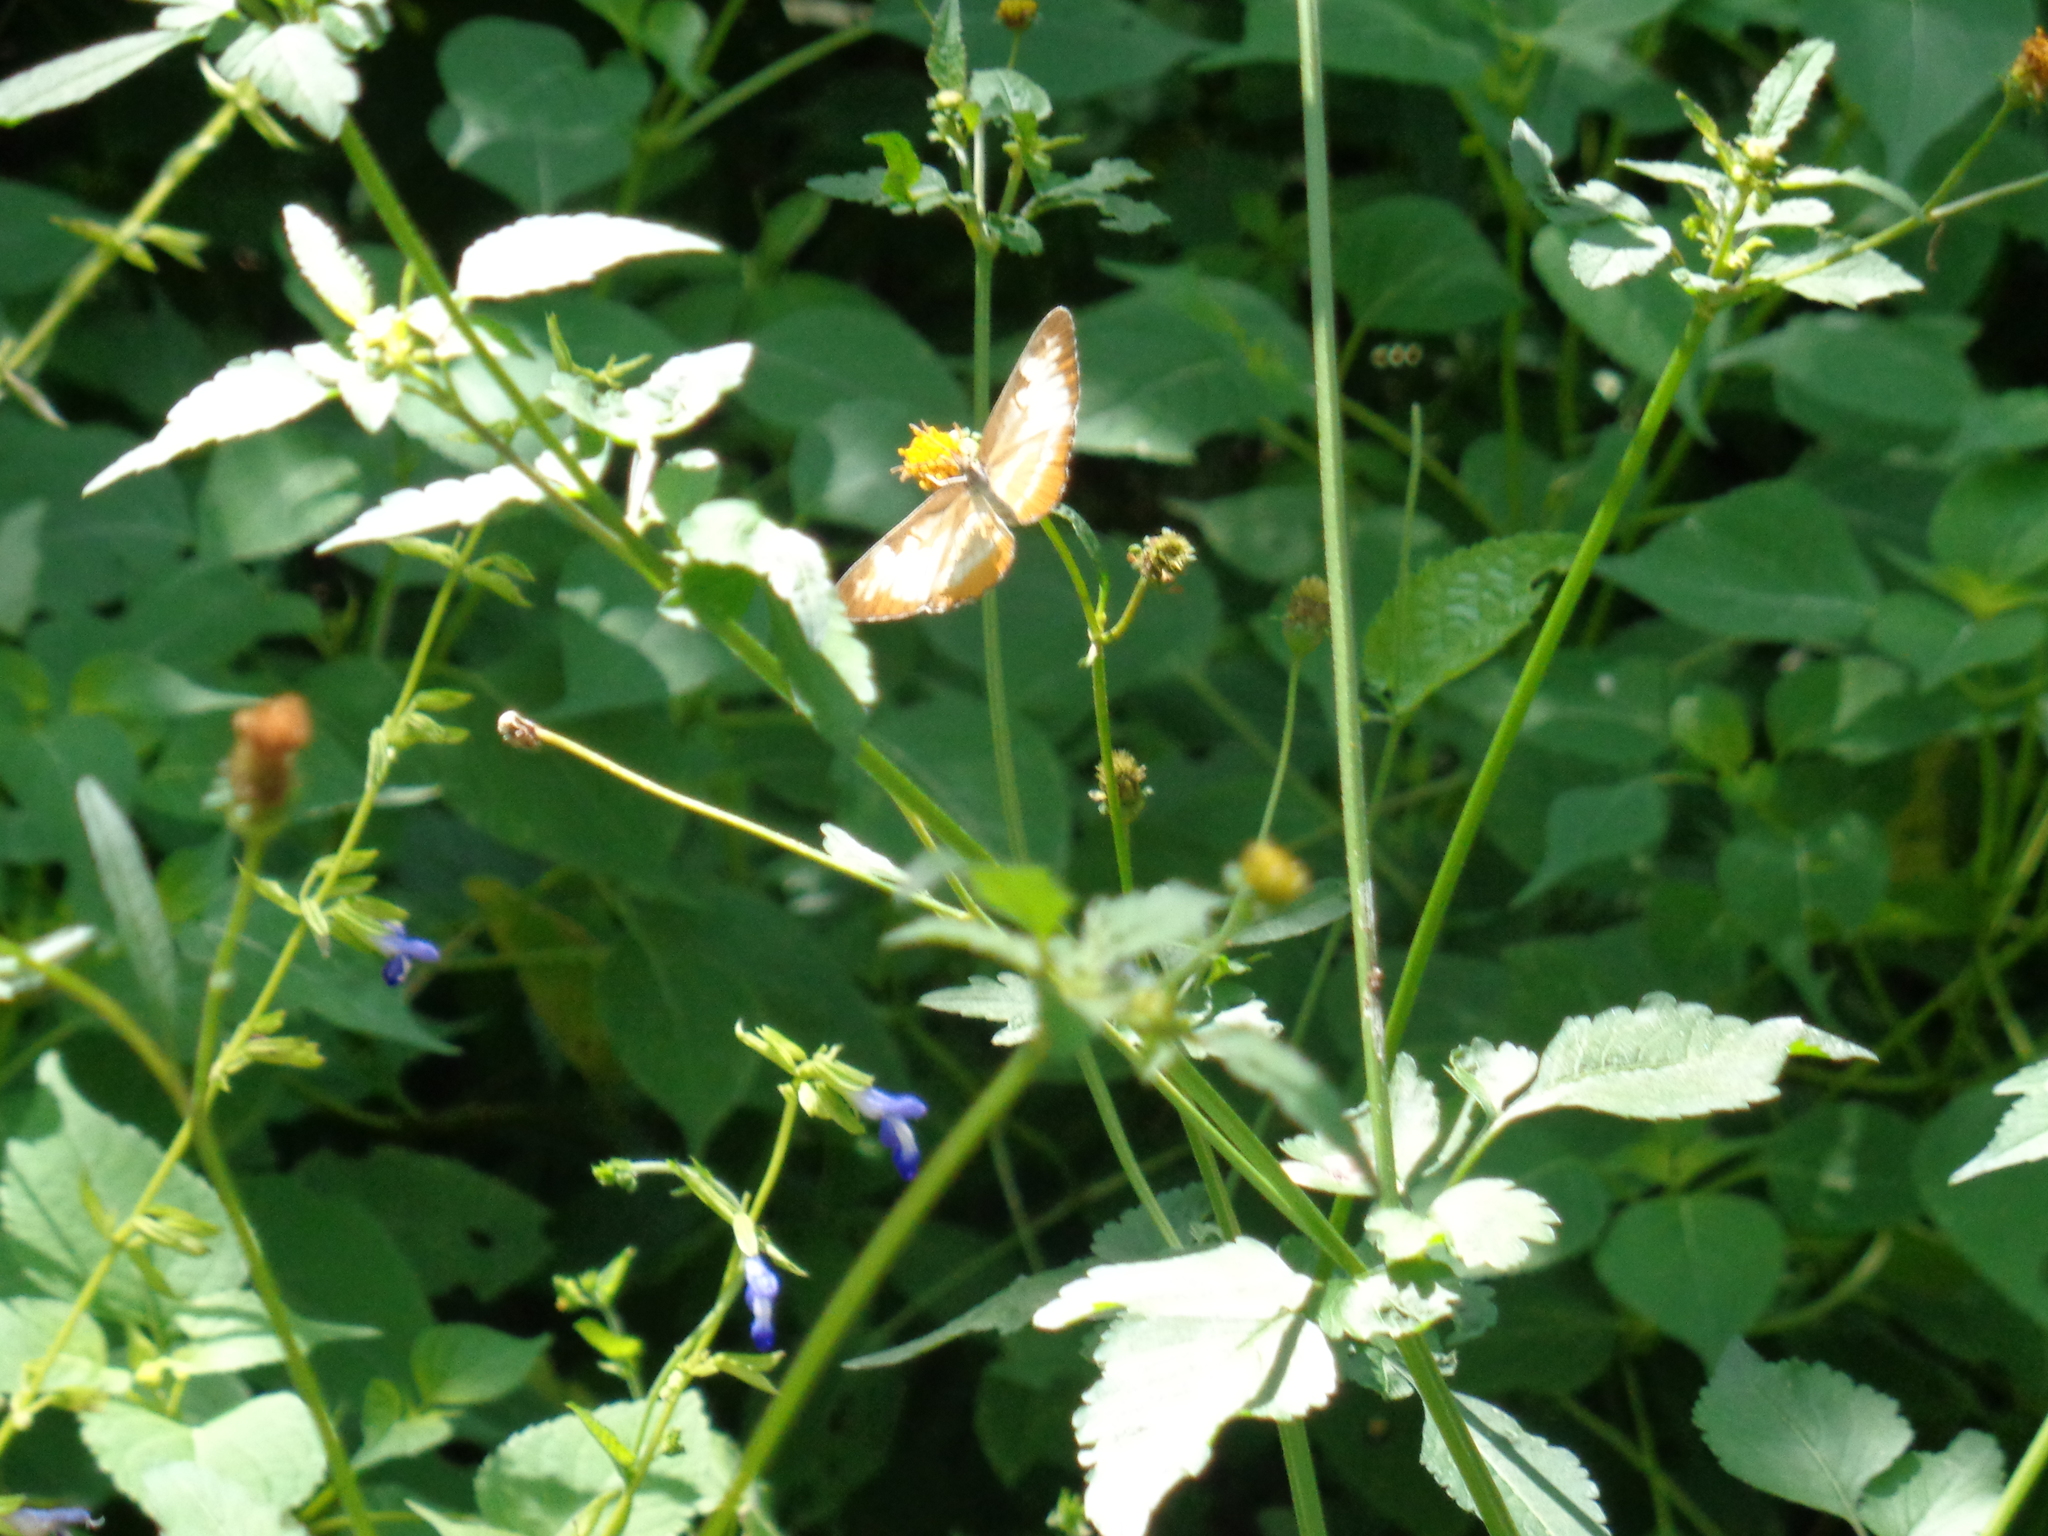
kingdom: Animalia
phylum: Arthropoda
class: Insecta
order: Lepidoptera
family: Nymphalidae
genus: Mestra
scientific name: Mestra amymone
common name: Common mestra
